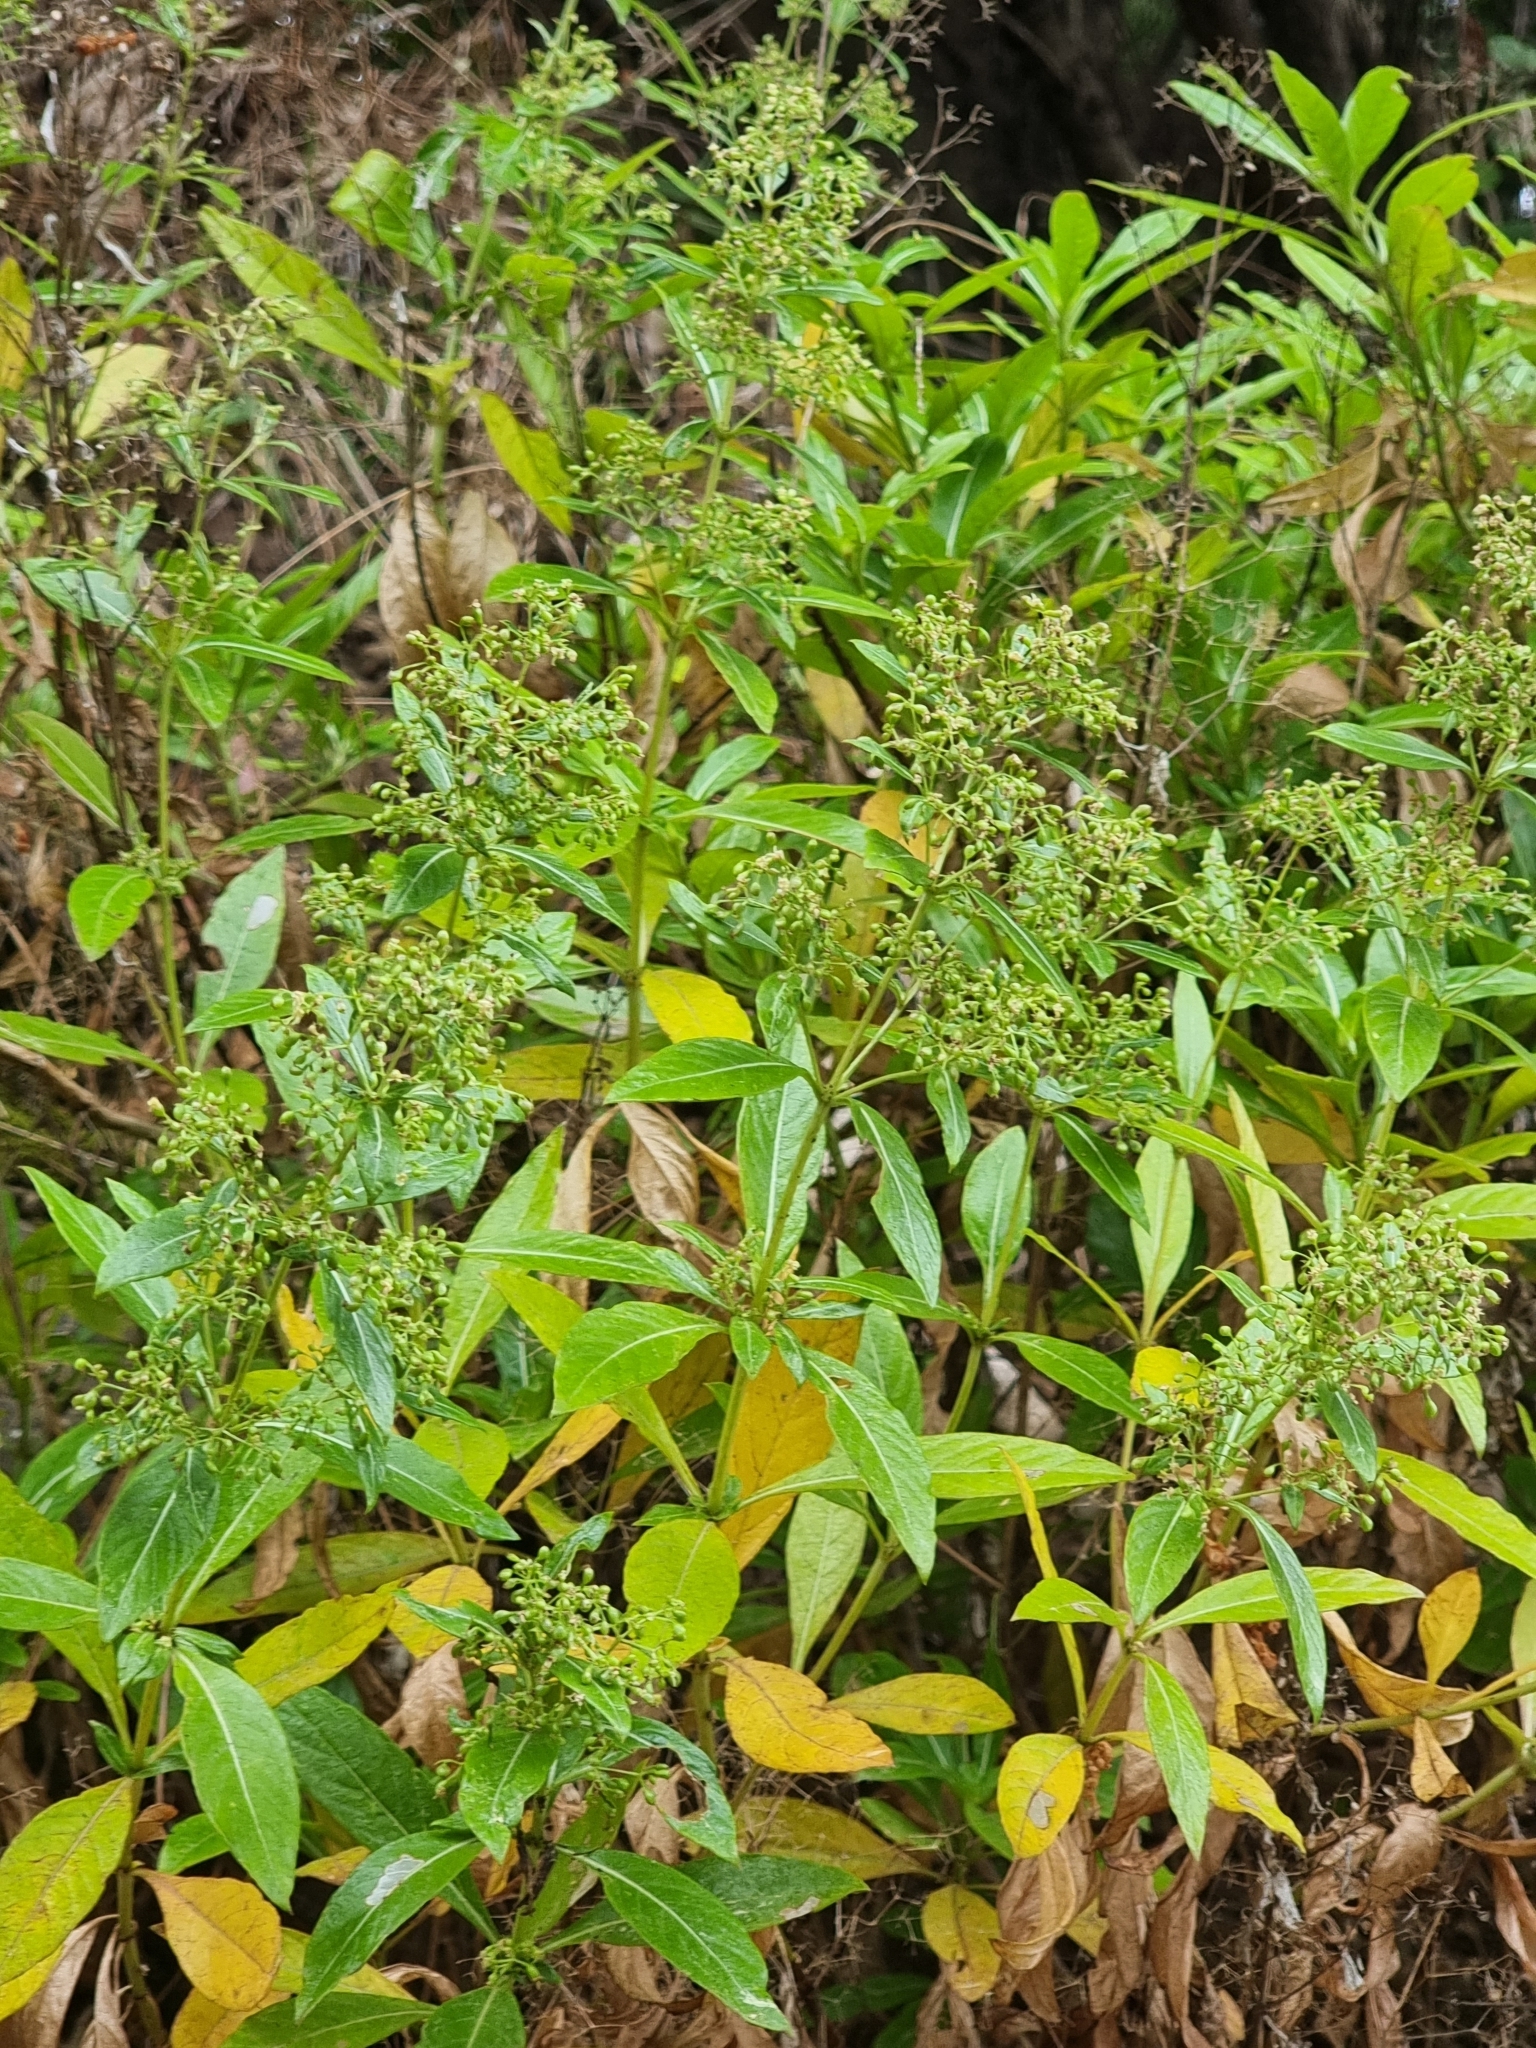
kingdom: Plantae
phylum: Tracheophyta
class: Magnoliopsida
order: Gentianales
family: Rubiaceae
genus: Phyllis
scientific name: Phyllis nobla
